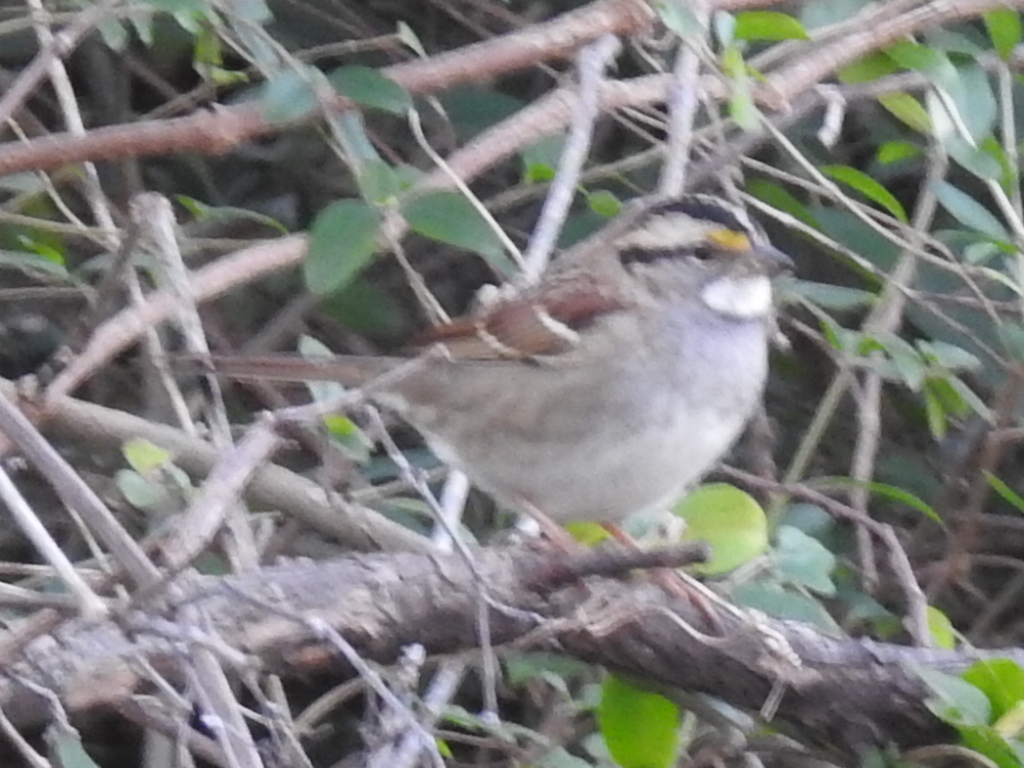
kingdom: Animalia
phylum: Chordata
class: Aves
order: Passeriformes
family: Passerellidae
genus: Zonotrichia
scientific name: Zonotrichia albicollis
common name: White-throated sparrow
